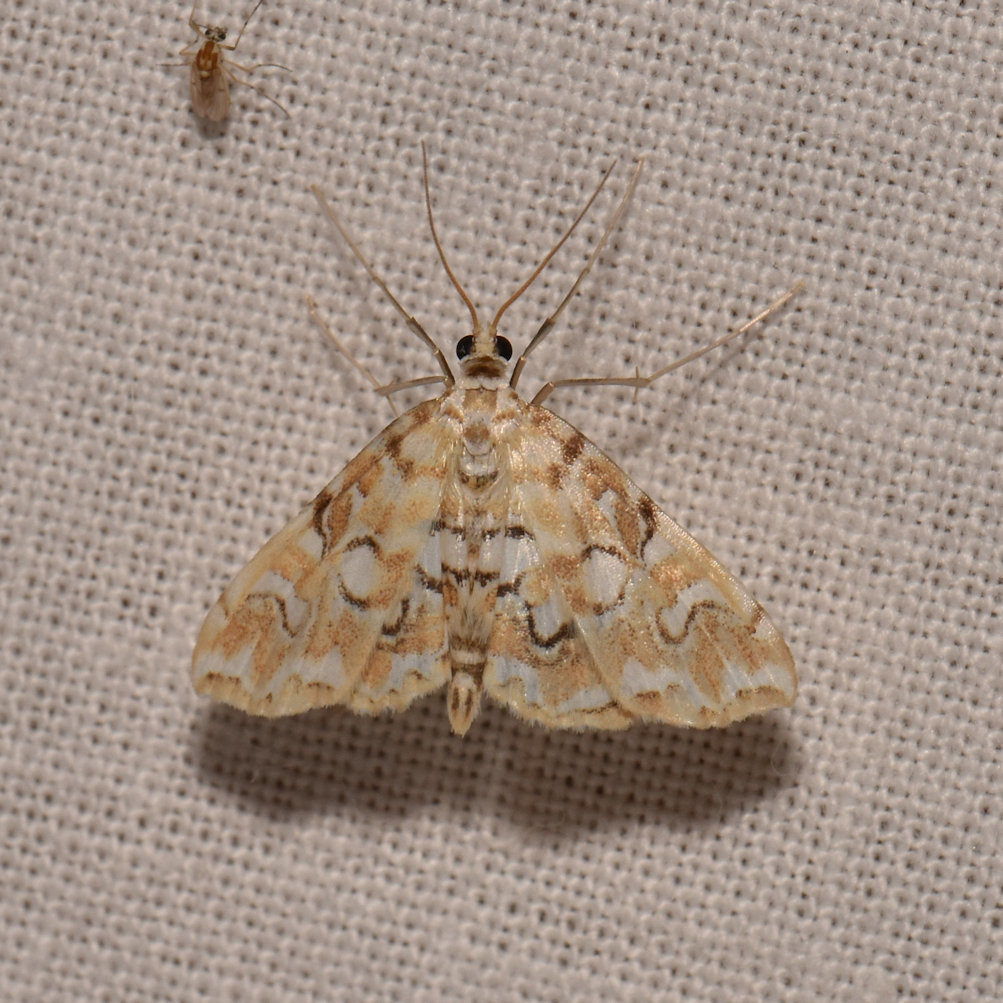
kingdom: Animalia
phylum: Arthropoda
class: Insecta
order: Lepidoptera
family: Crambidae
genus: Elophila
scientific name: Elophila icciusalis
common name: Pondside pyralid moth
